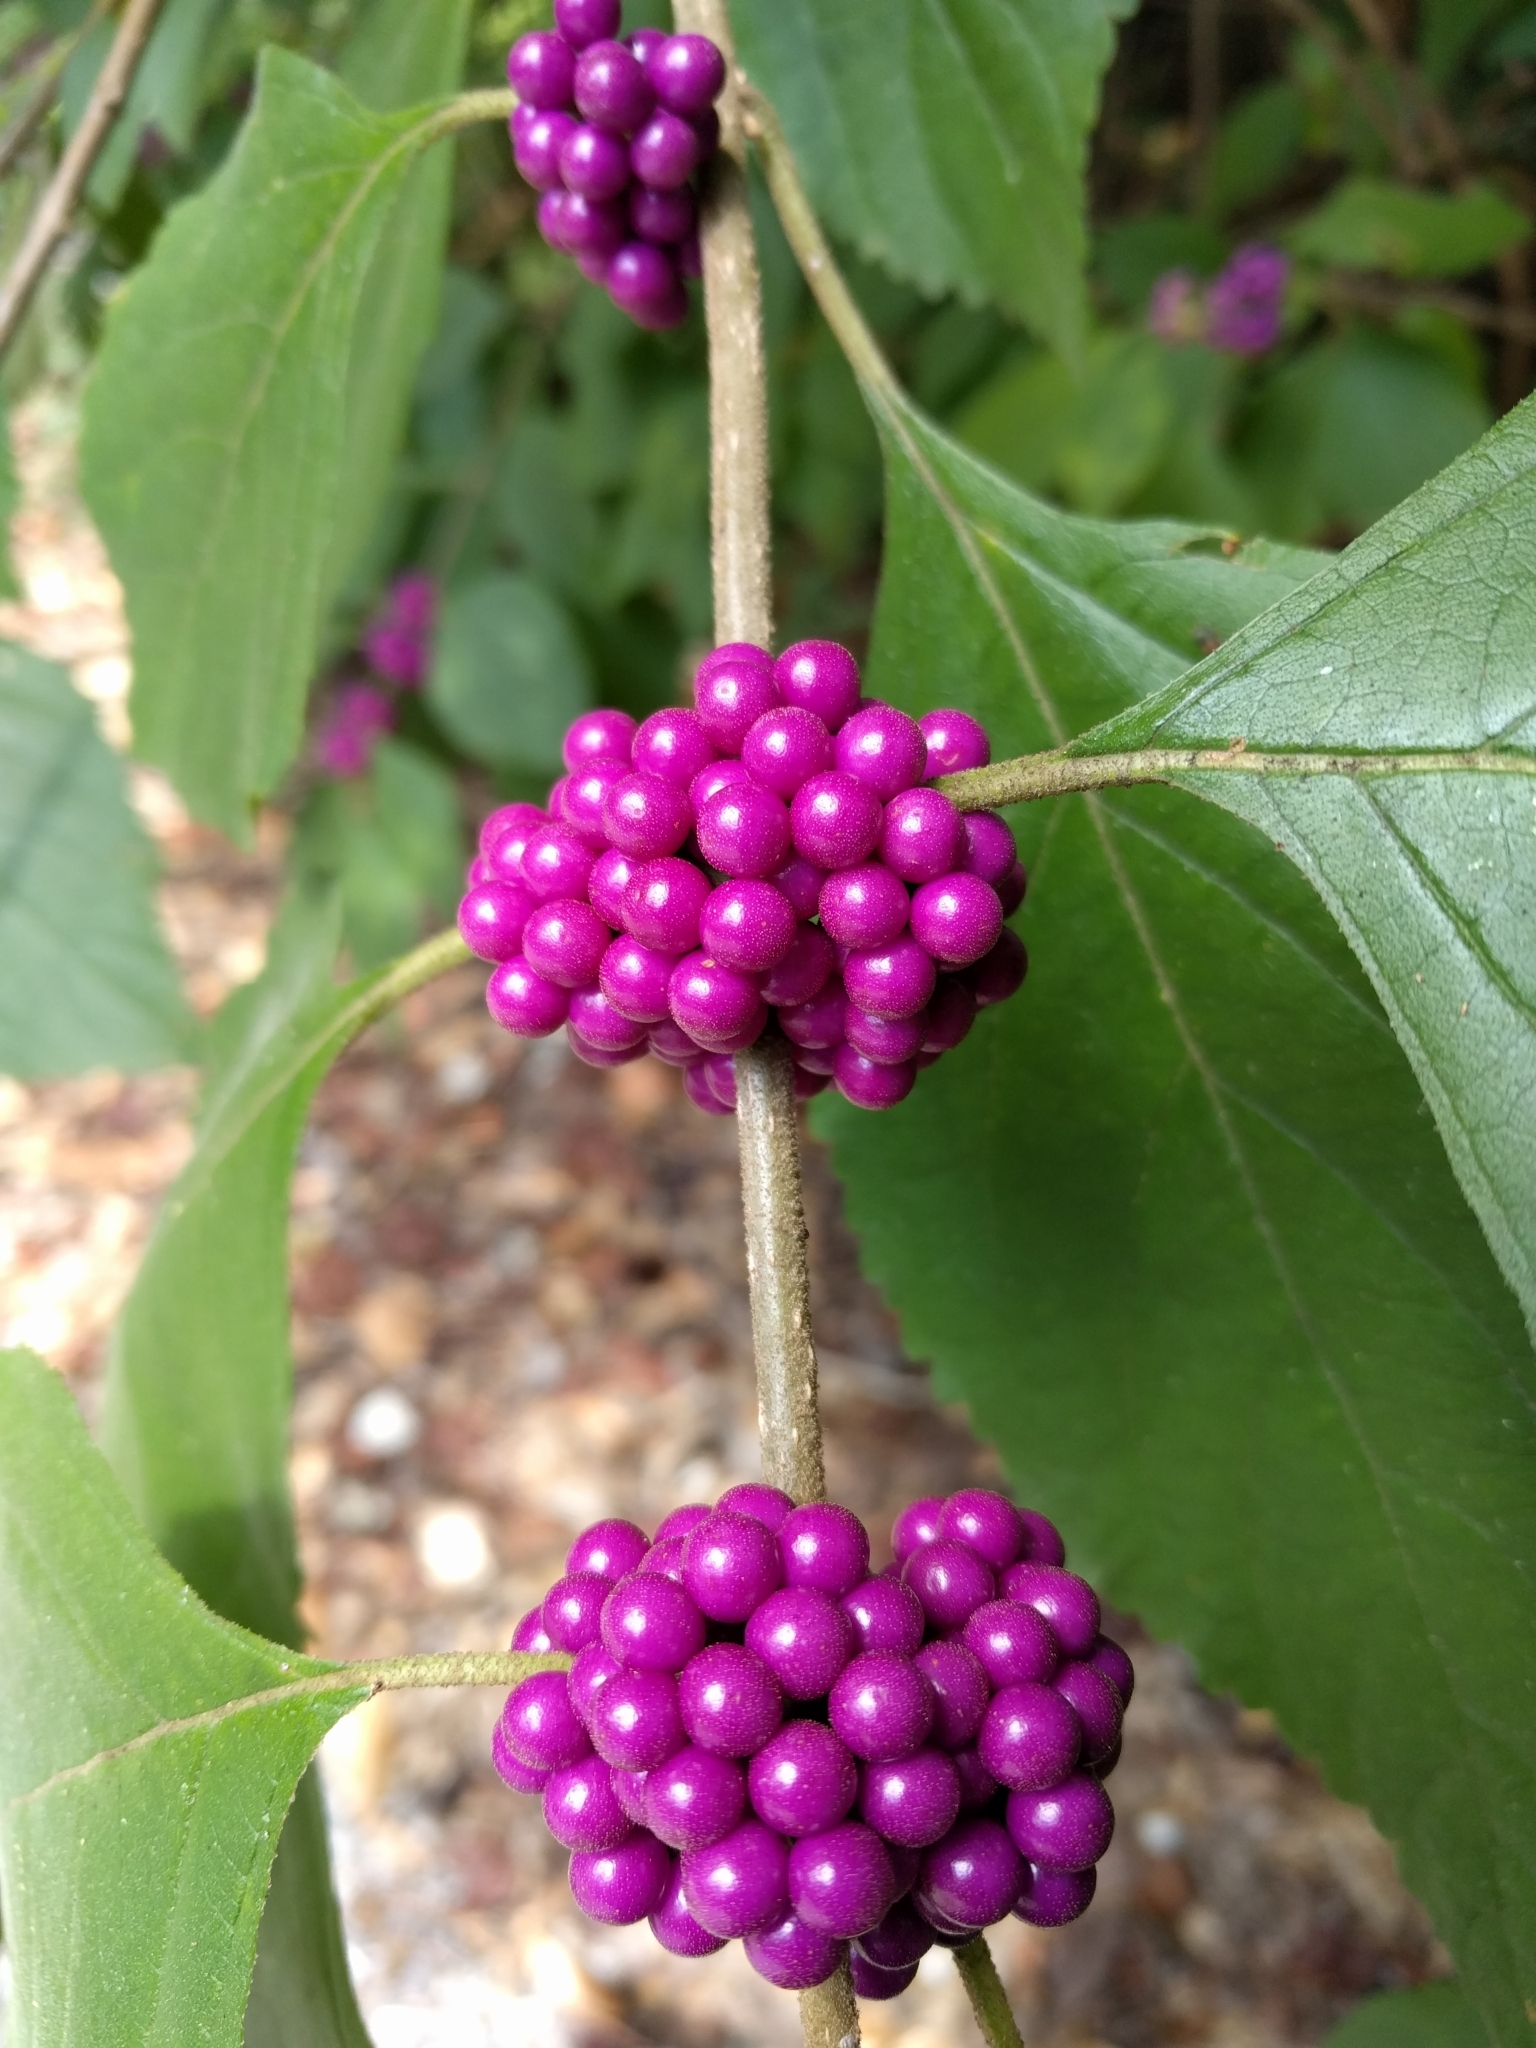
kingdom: Plantae
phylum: Tracheophyta
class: Magnoliopsida
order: Lamiales
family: Lamiaceae
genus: Callicarpa
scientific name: Callicarpa americana
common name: American beautyberry
